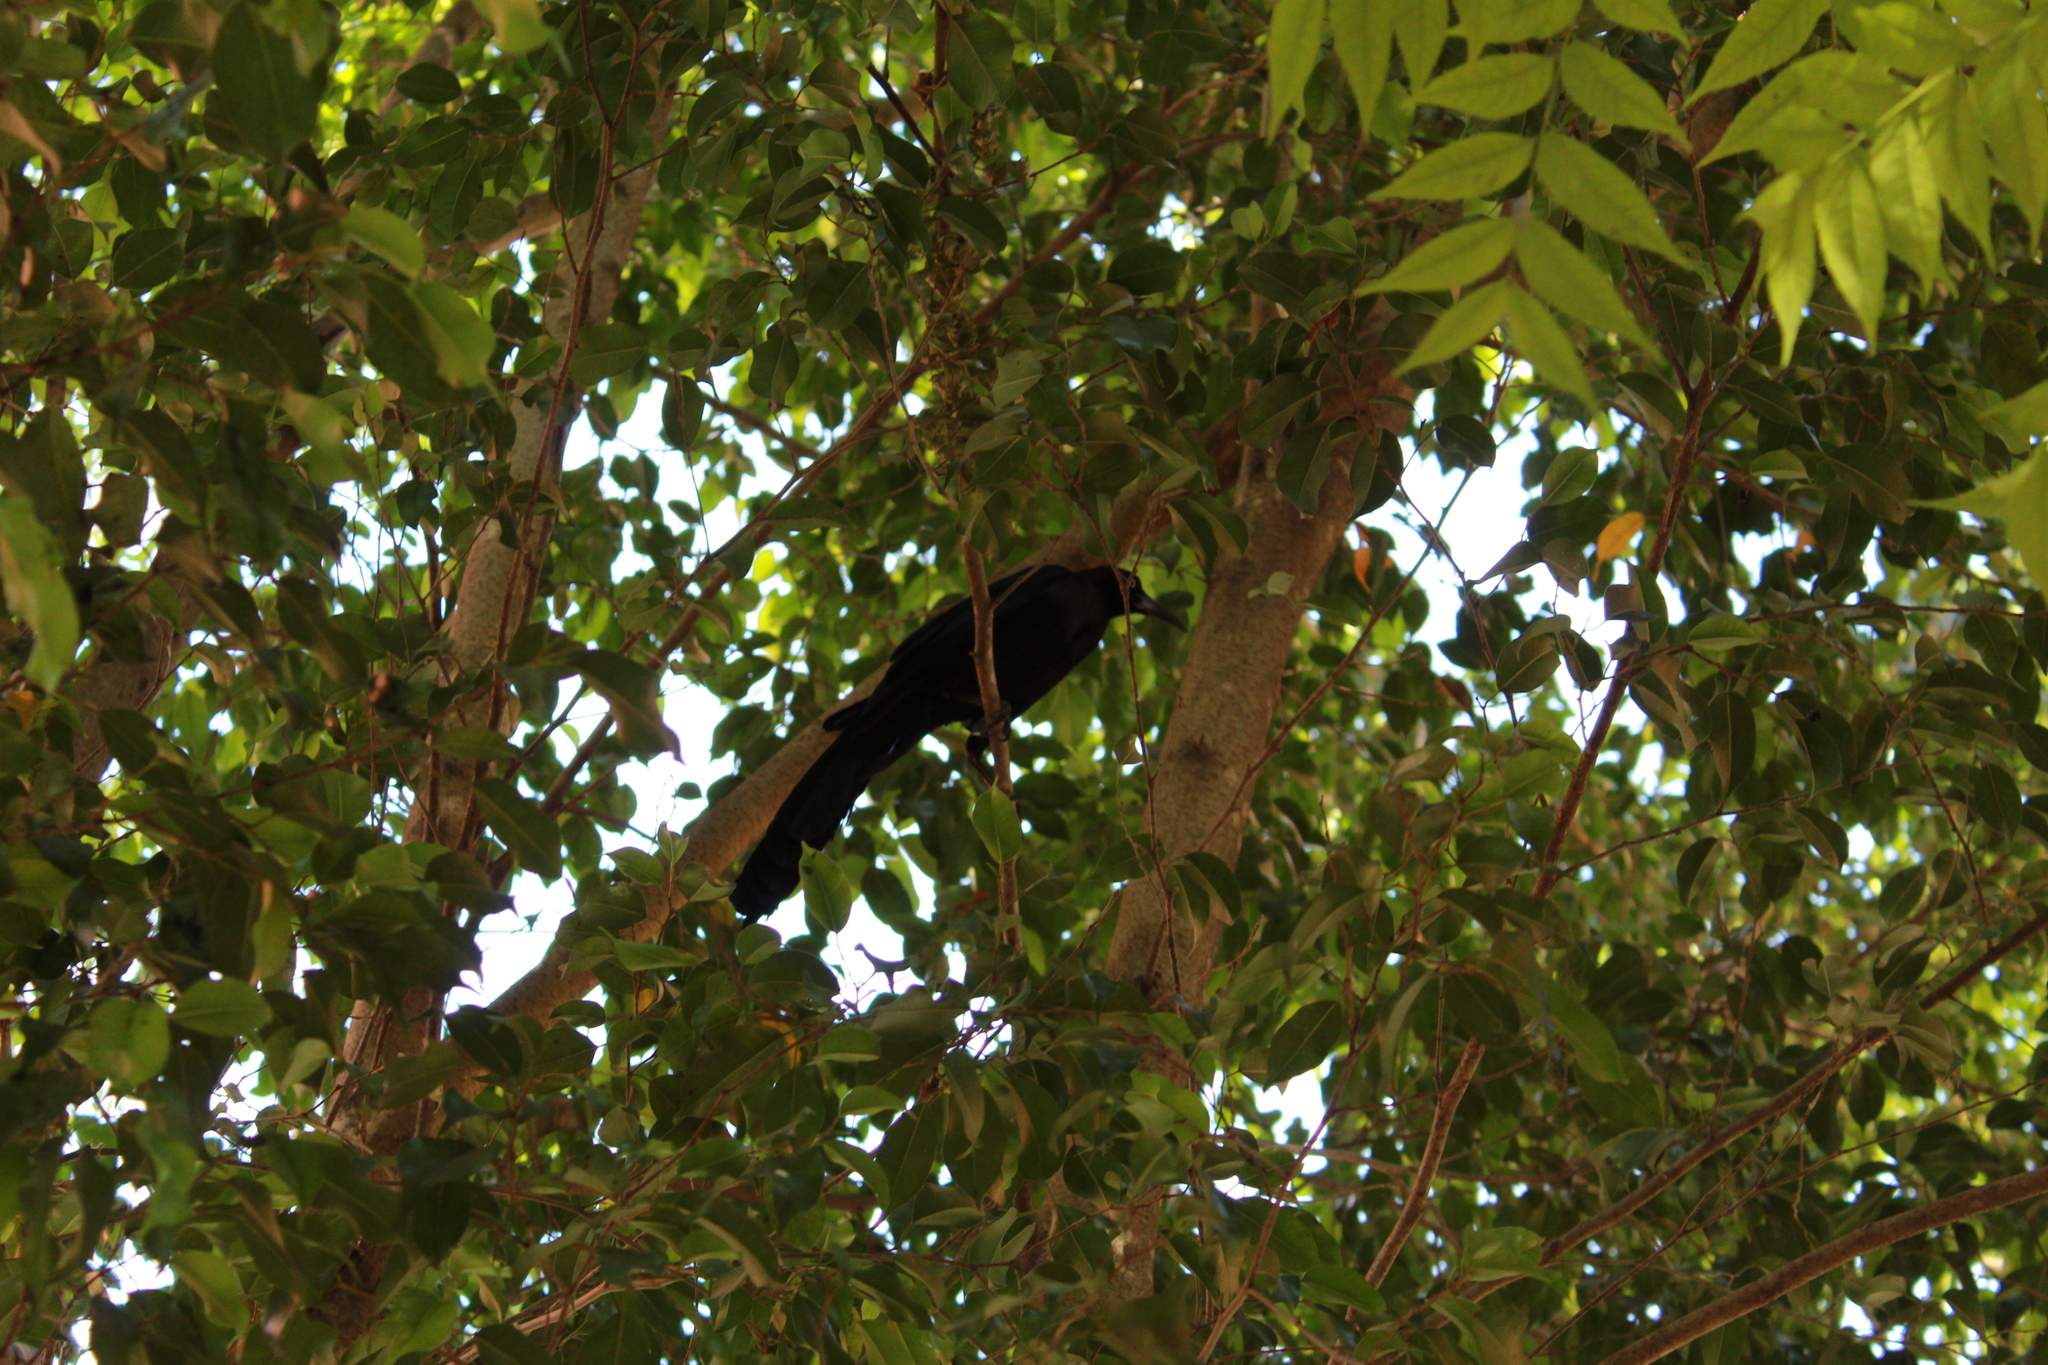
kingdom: Animalia
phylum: Chordata
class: Aves
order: Passeriformes
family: Icteridae
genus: Quiscalus
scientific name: Quiscalus mexicanus
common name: Great-tailed grackle
